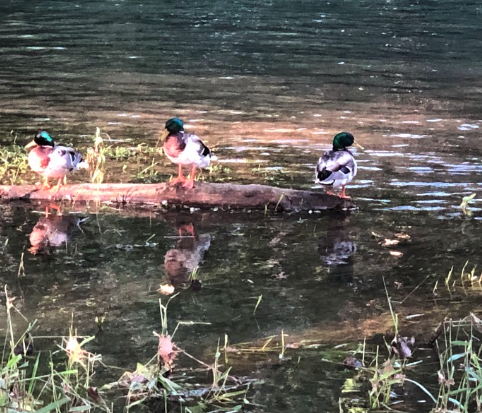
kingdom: Animalia
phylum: Chordata
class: Aves
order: Anseriformes
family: Anatidae
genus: Anas
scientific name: Anas platyrhynchos
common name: Mallard
